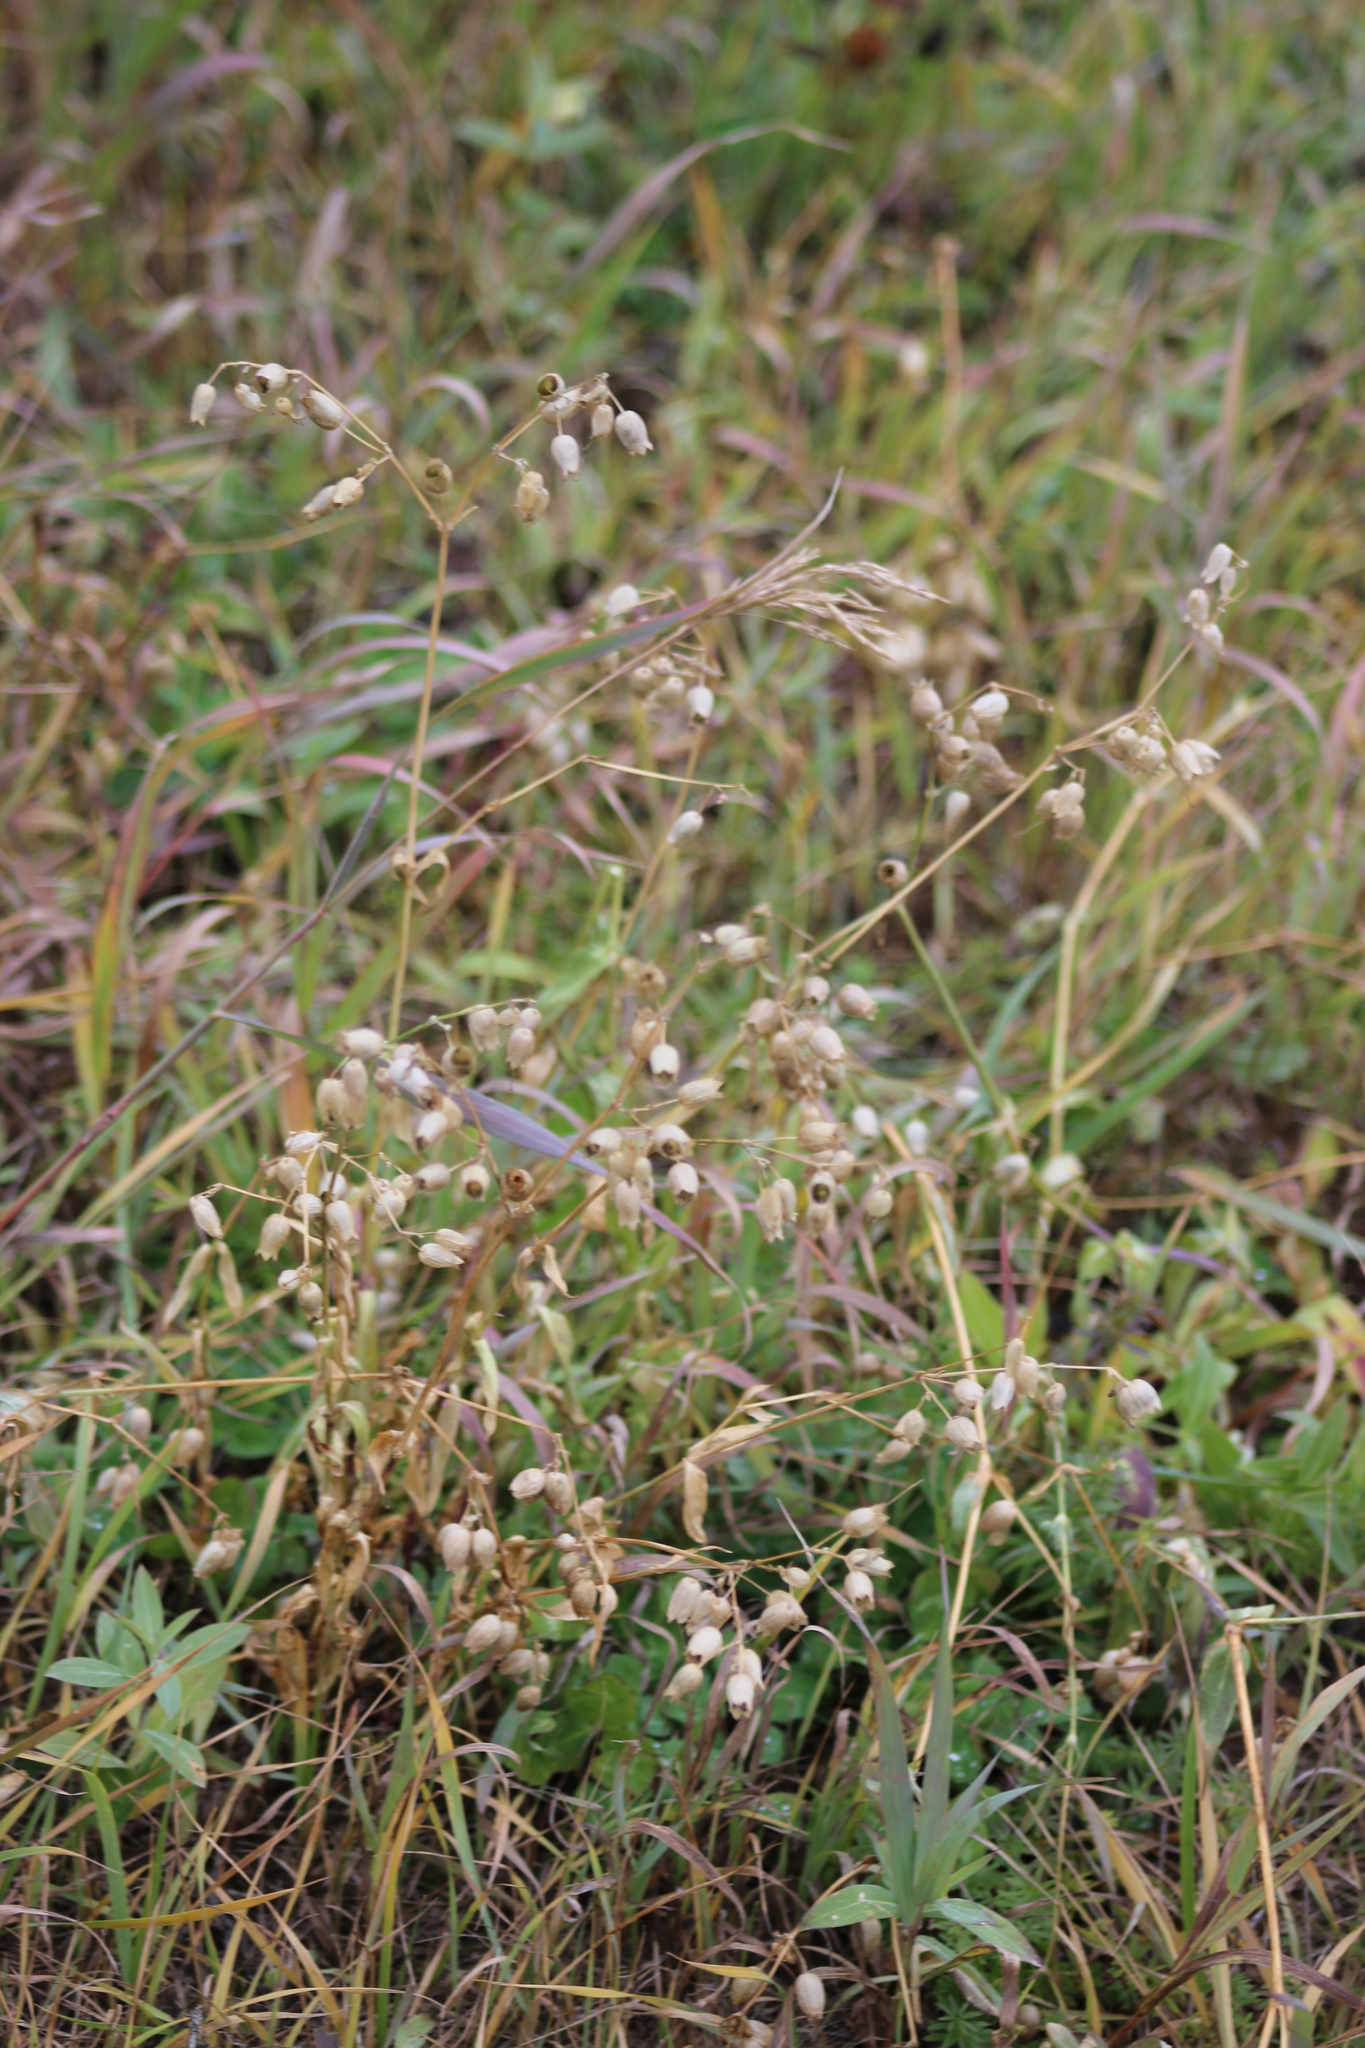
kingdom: Plantae
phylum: Tracheophyta
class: Magnoliopsida
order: Caryophyllales
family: Caryophyllaceae
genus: Silene
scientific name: Silene vulgaris
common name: Bladder campion
